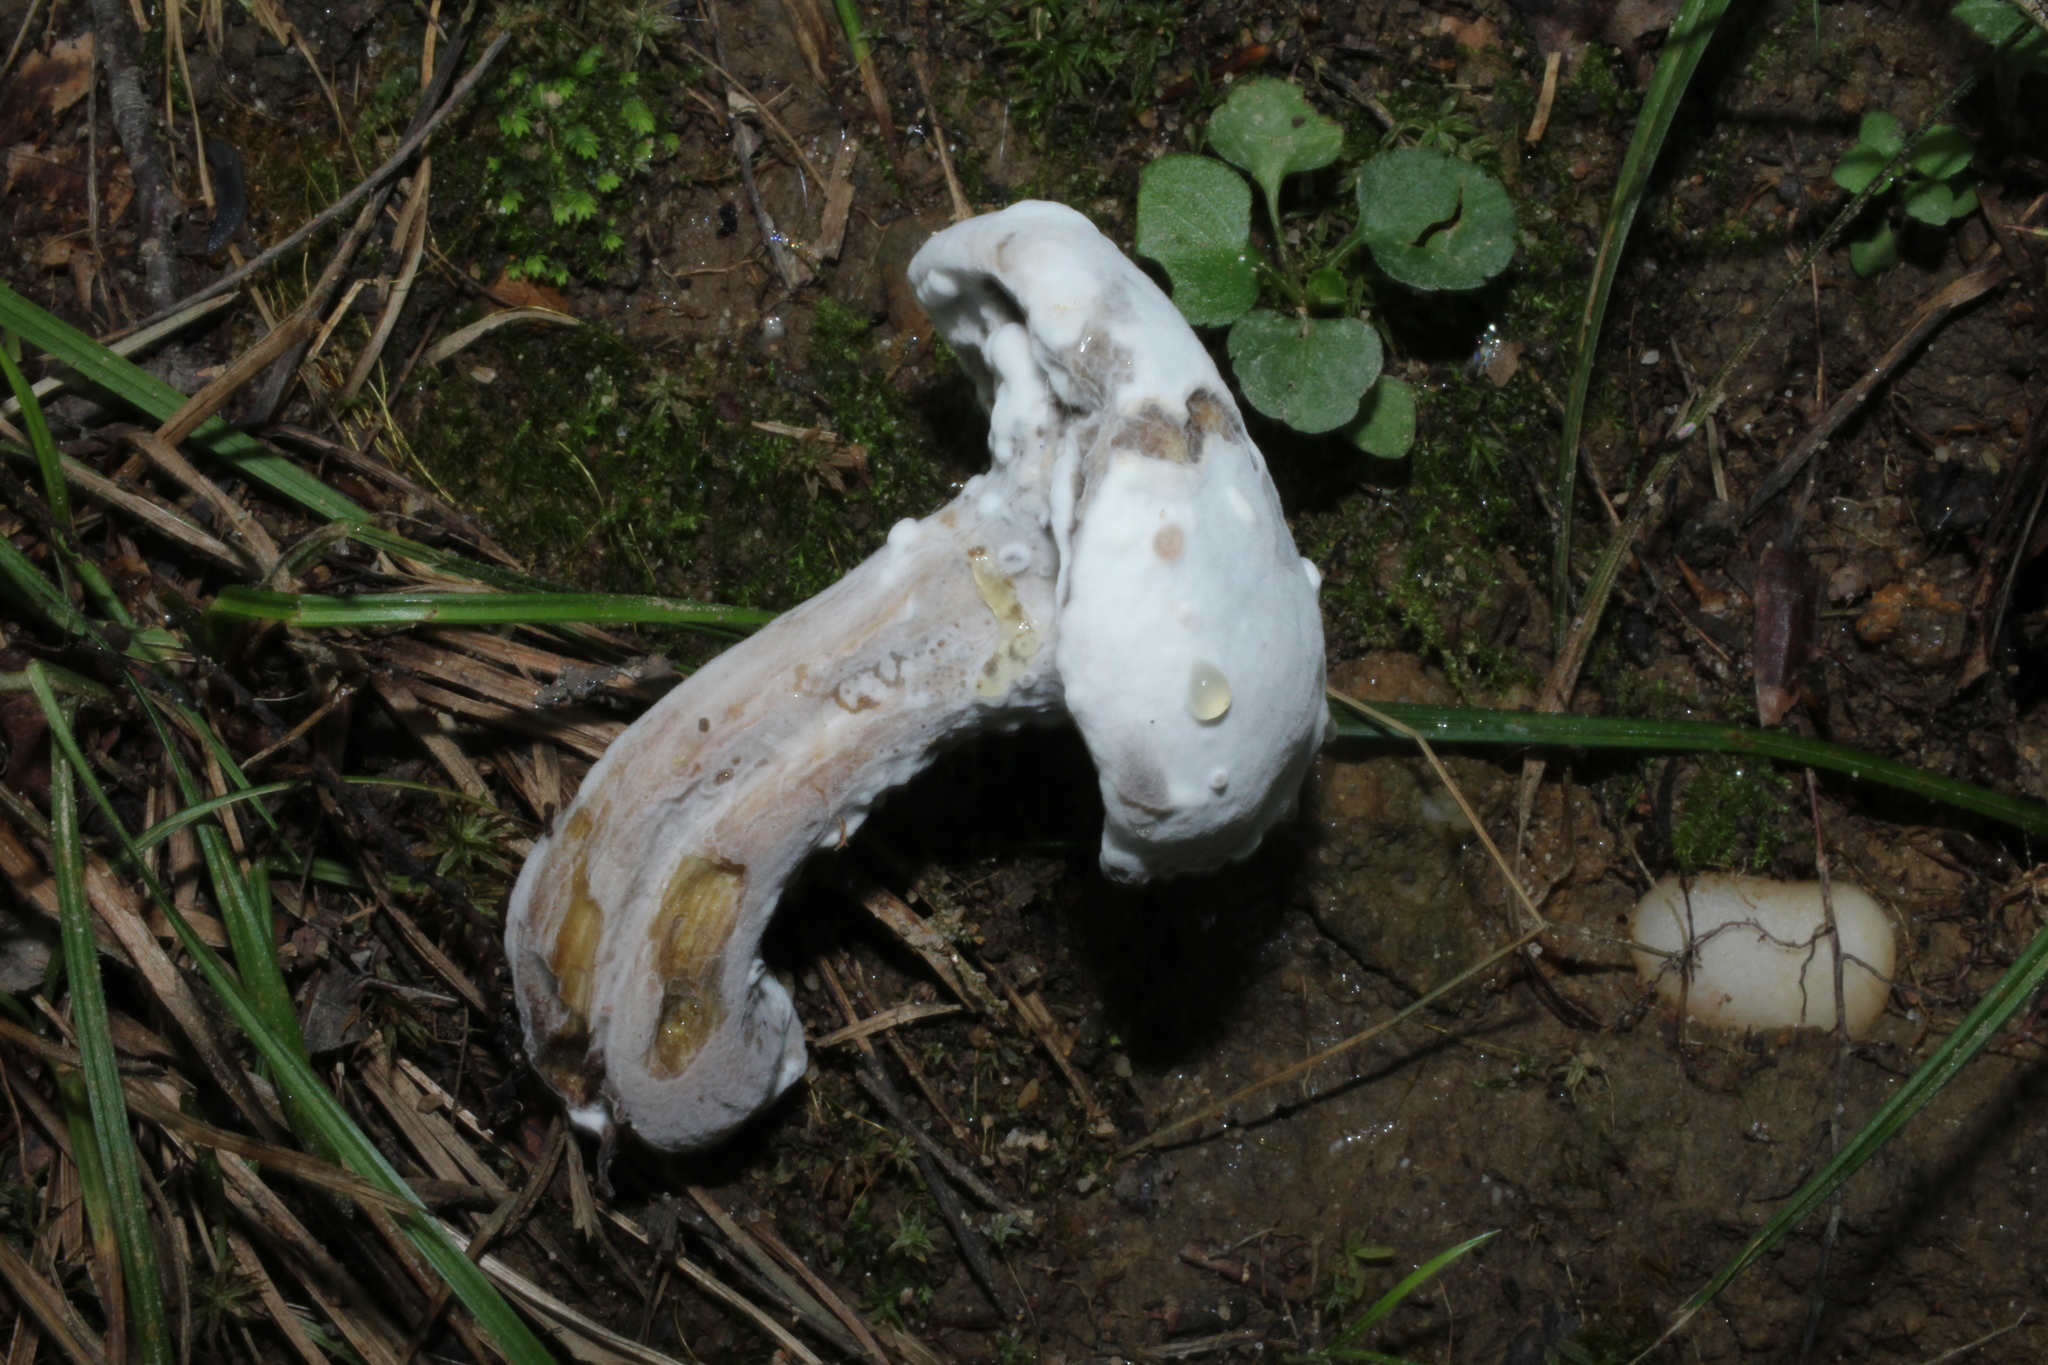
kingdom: Fungi
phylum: Ascomycota
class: Sordariomycetes
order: Hypocreales
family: Hypocreaceae
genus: Hypomyces
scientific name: Hypomyces chrysospermus
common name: Bolete mould
